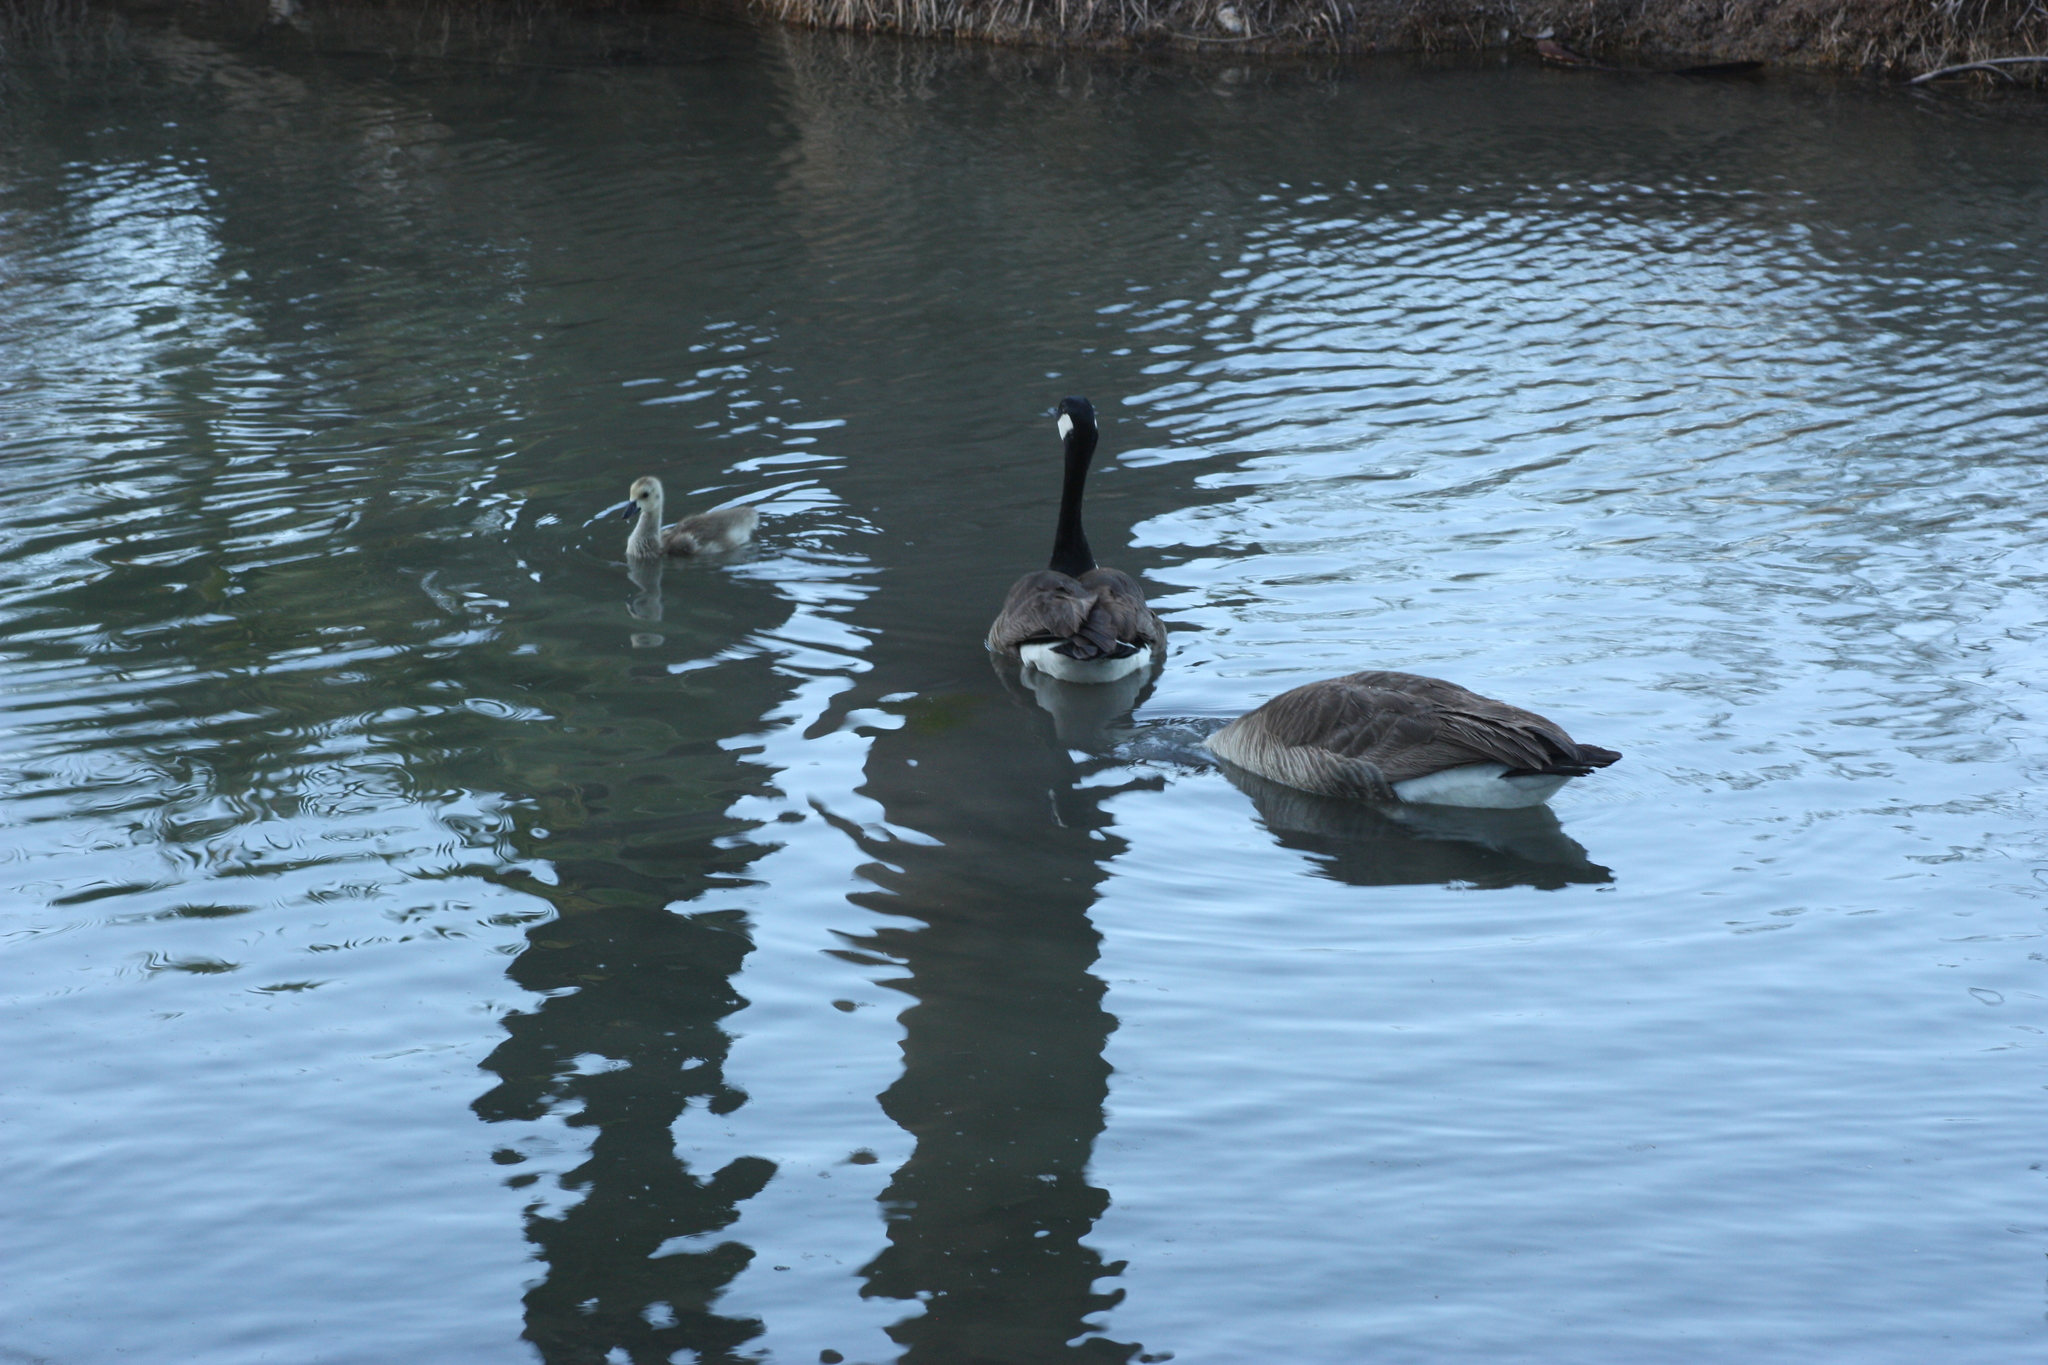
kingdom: Animalia
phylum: Chordata
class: Aves
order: Anseriformes
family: Anatidae
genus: Branta
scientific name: Branta canadensis
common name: Canada goose
